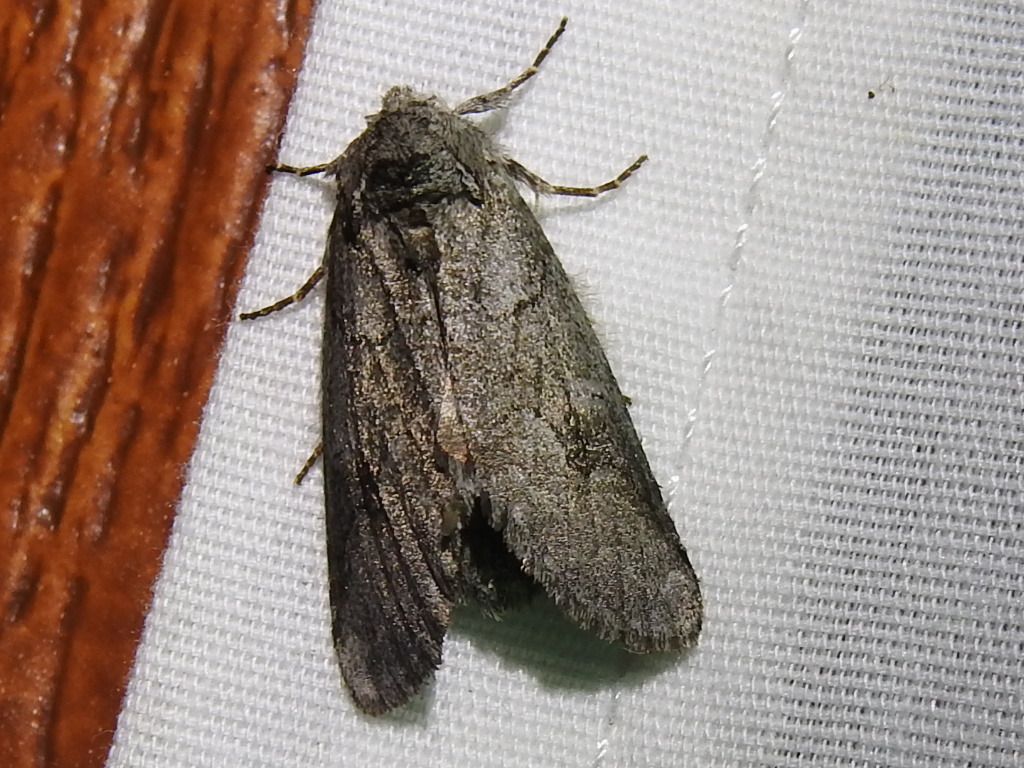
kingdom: Animalia
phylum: Arthropoda
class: Insecta
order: Lepidoptera
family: Notodontidae
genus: Lochmaeus
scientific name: Lochmaeus bilineata
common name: Double-lined prominent
